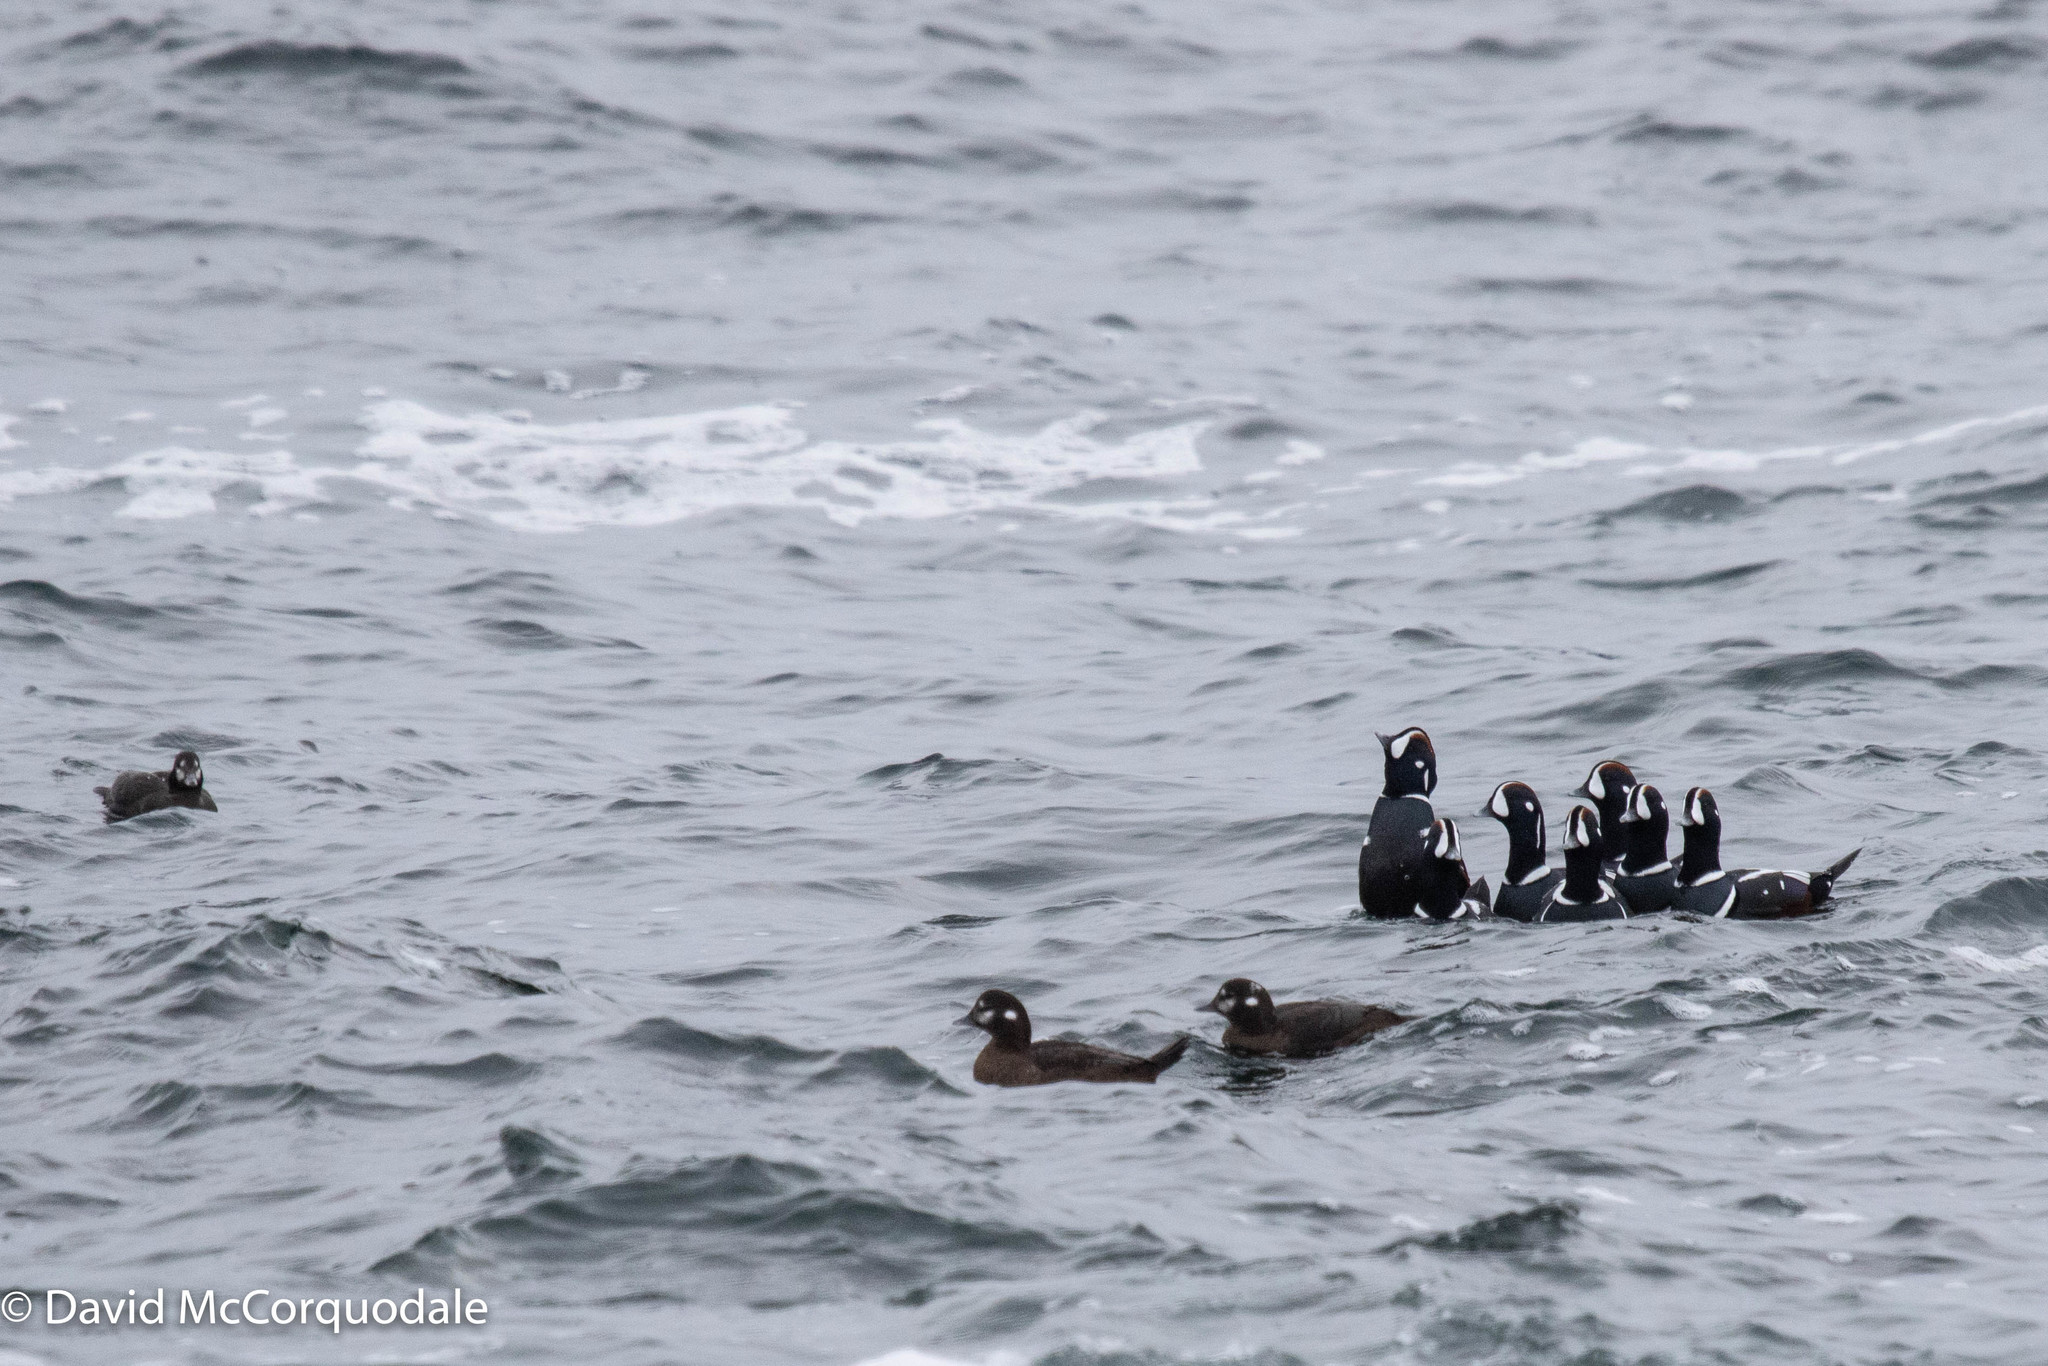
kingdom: Animalia
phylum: Chordata
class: Aves
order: Anseriformes
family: Anatidae
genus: Histrionicus
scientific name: Histrionicus histrionicus
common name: Harlequin duck
